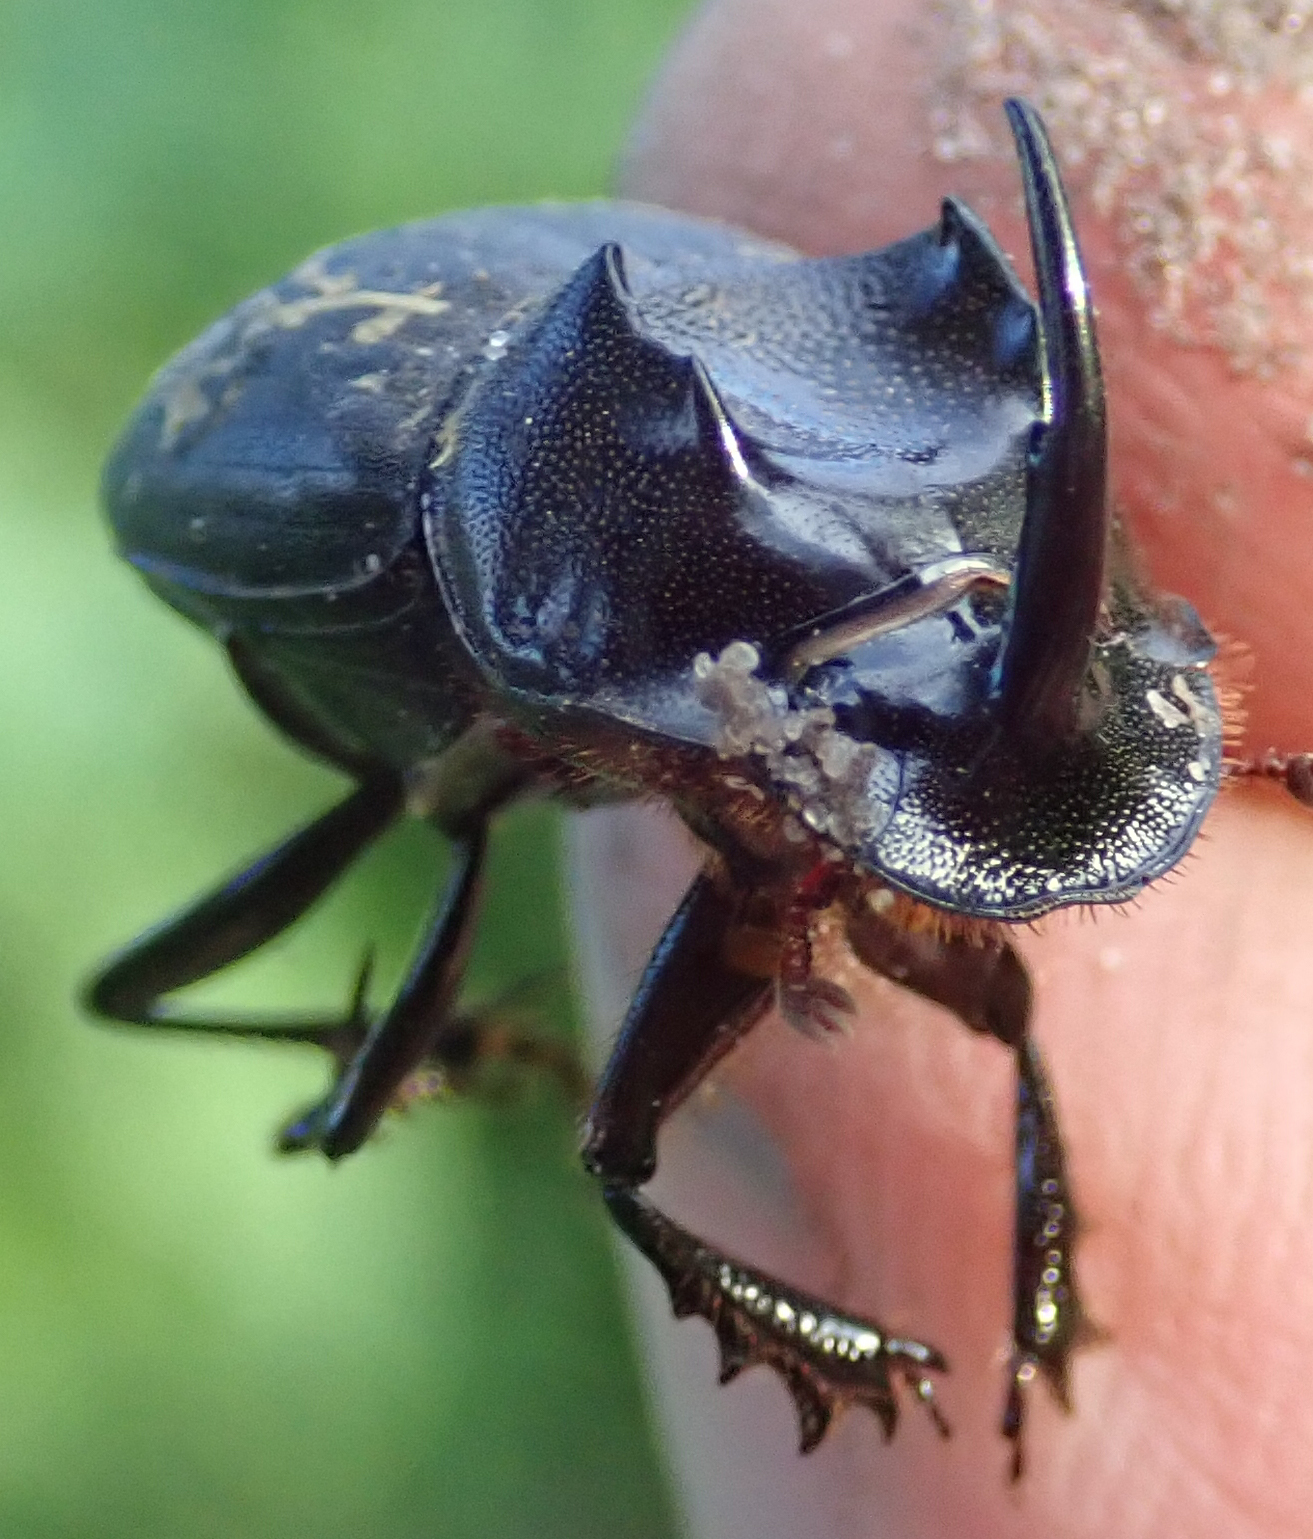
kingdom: Animalia
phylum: Arthropoda
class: Insecta
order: Coleoptera
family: Scarabaeidae
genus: Copris
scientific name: Copris mesacanthus
